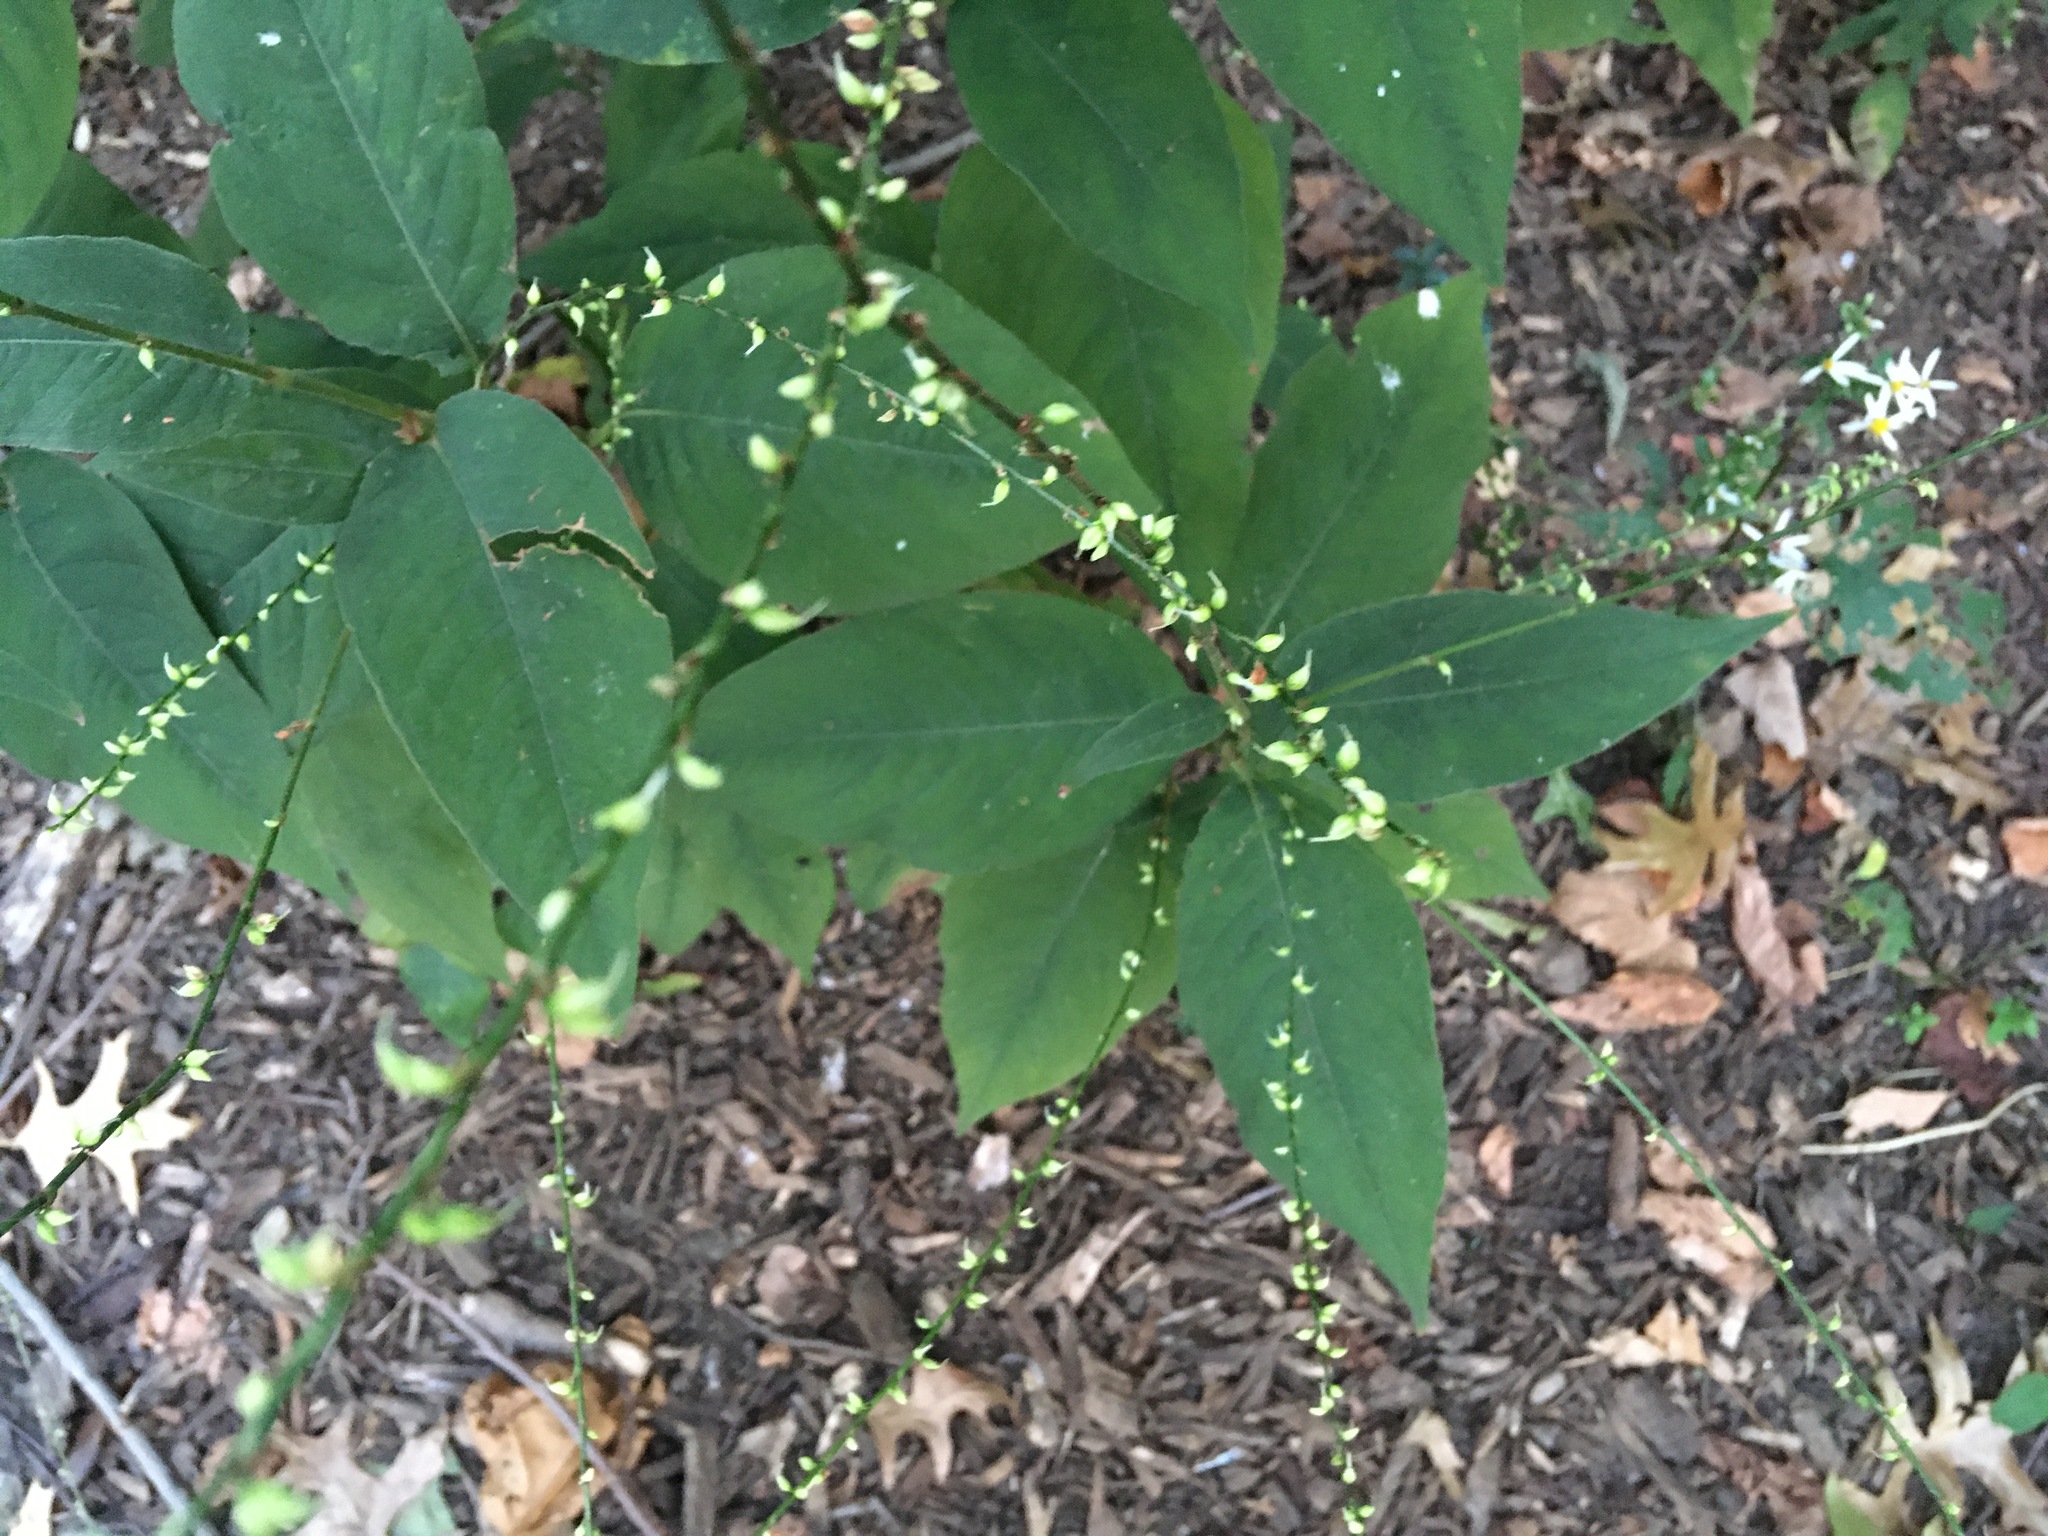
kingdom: Plantae
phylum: Tracheophyta
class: Magnoliopsida
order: Caryophyllales
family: Polygonaceae
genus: Persicaria
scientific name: Persicaria virginiana
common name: Jumpseed
